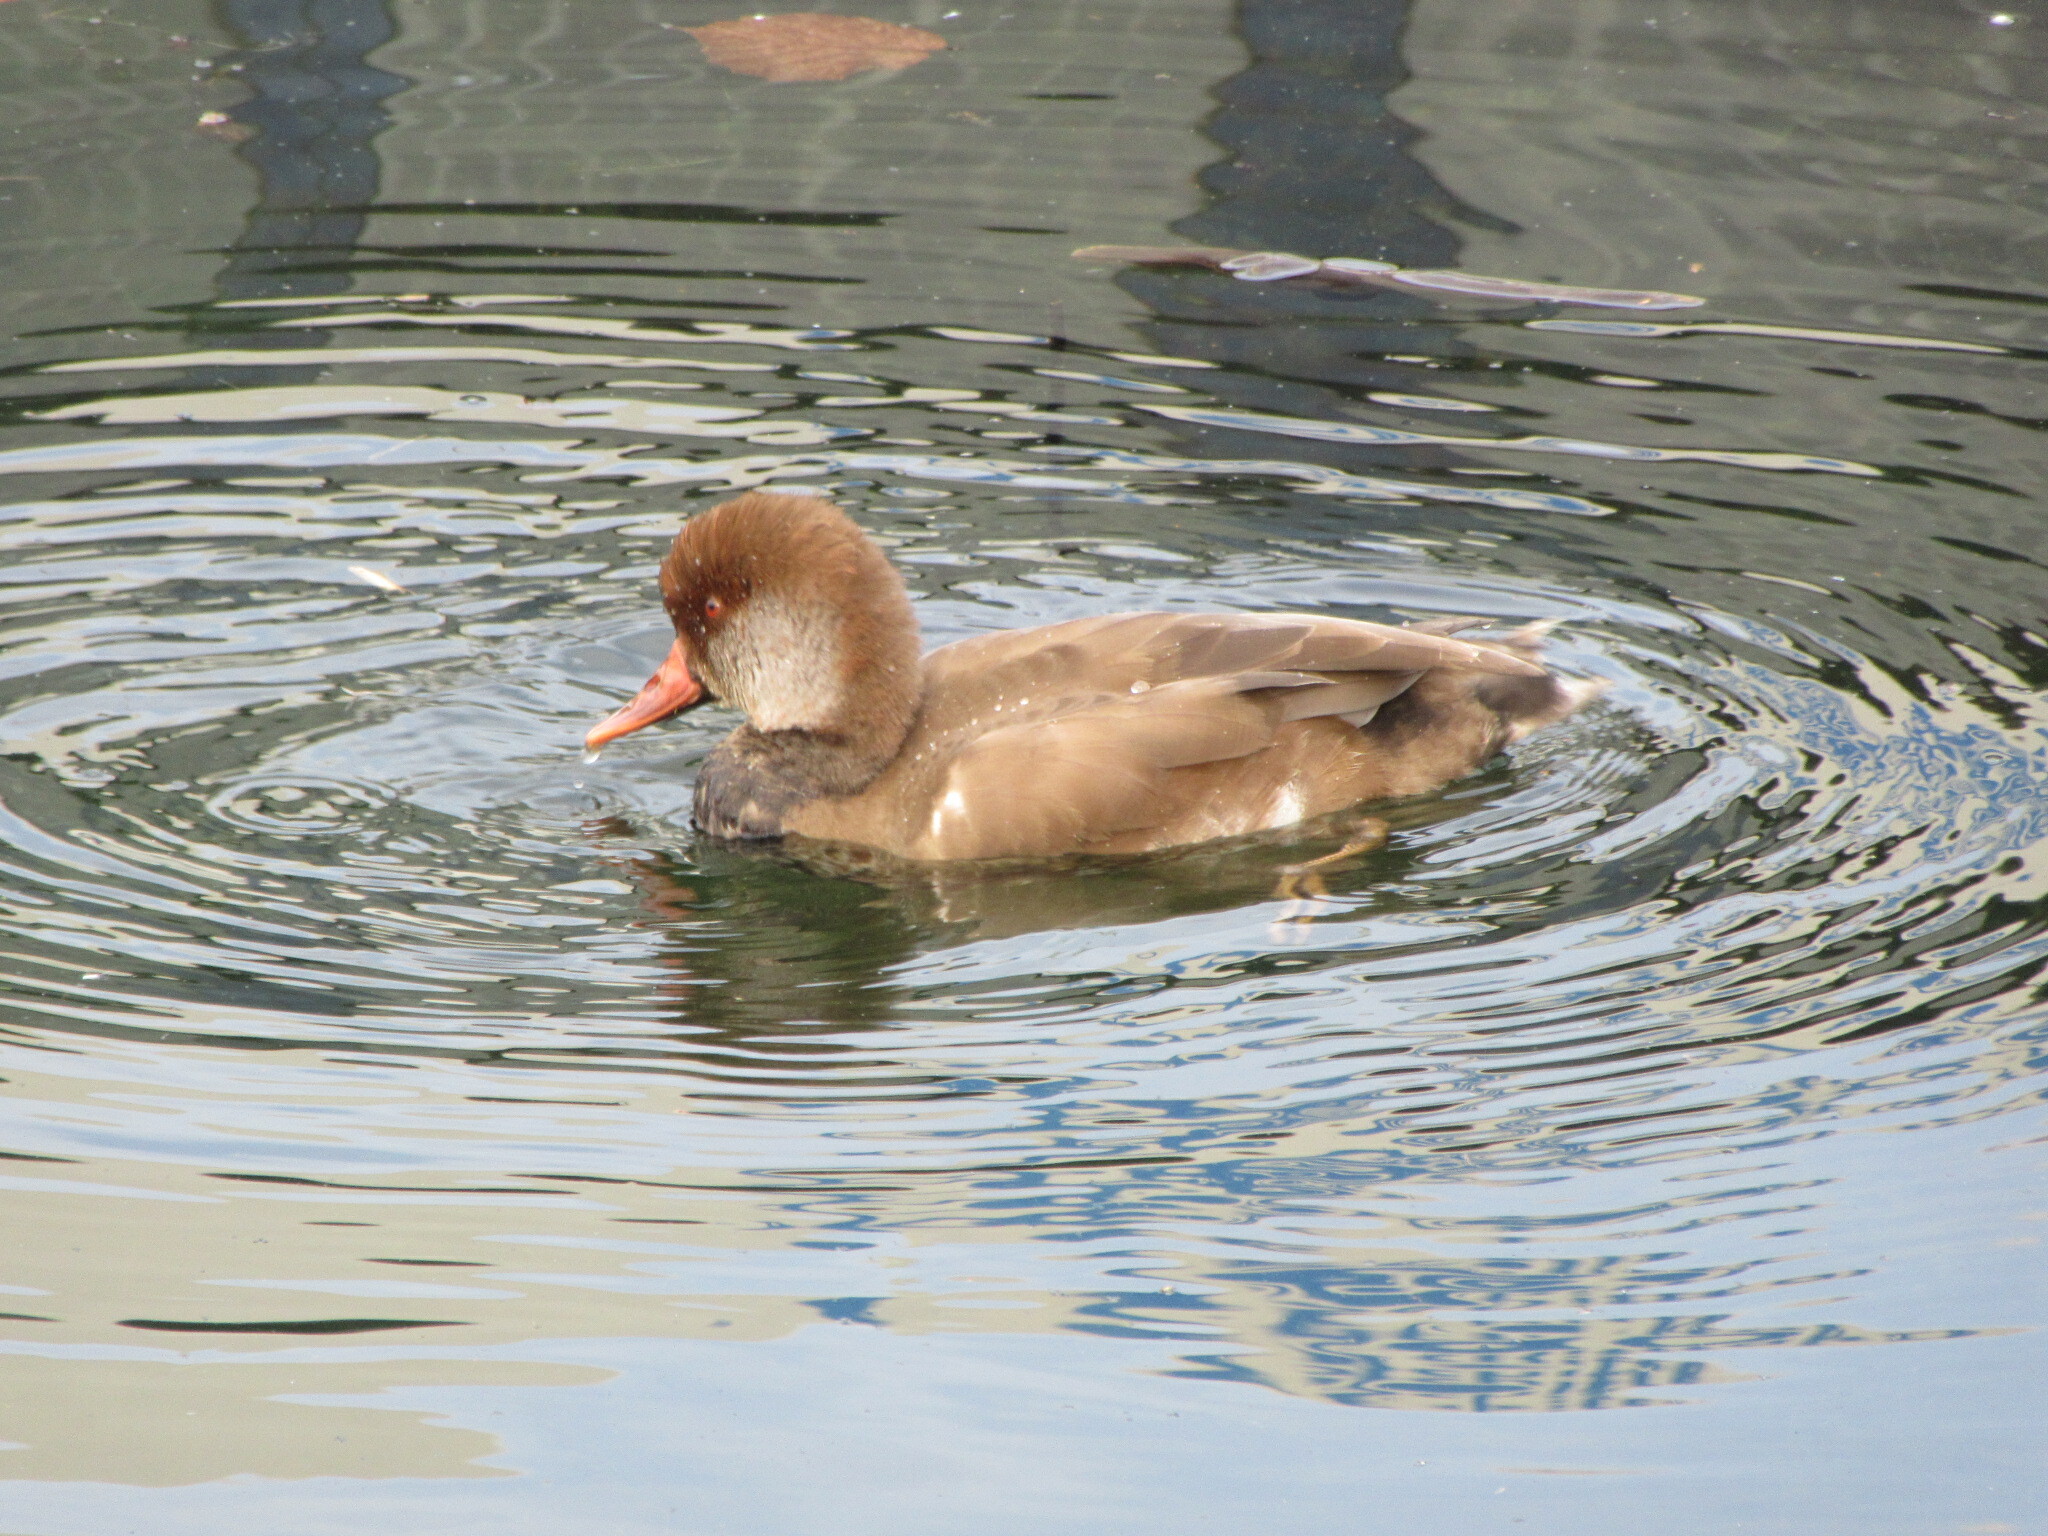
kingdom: Animalia
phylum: Chordata
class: Aves
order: Anseriformes
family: Anatidae
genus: Netta
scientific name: Netta rufina
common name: Red-crested pochard
